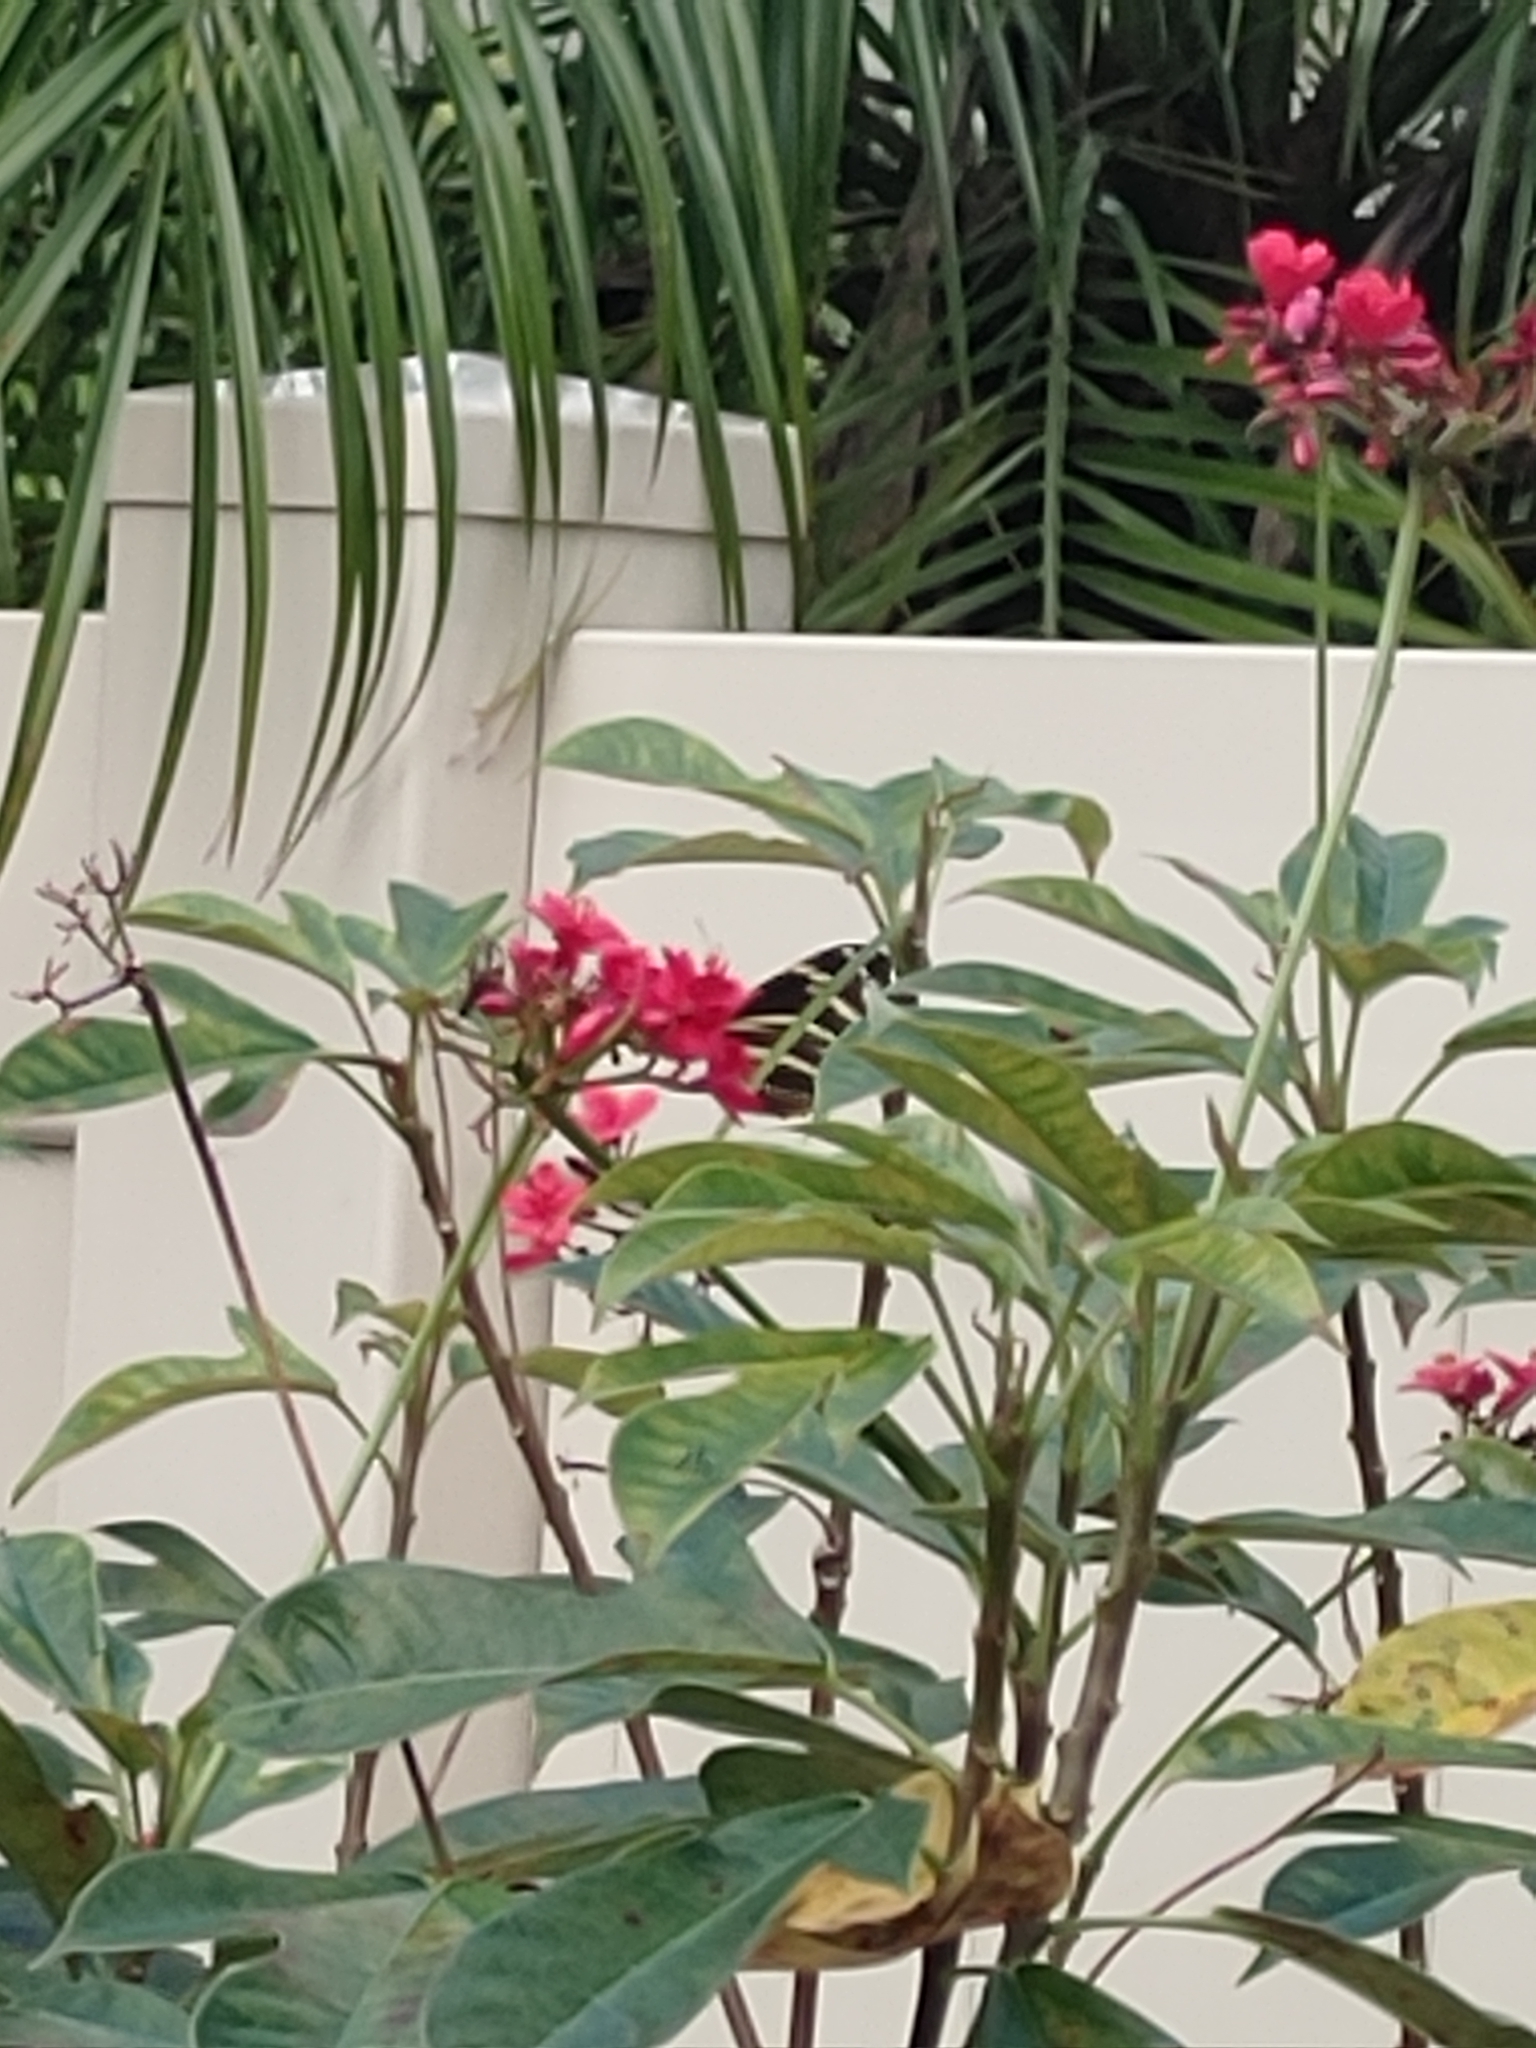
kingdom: Animalia
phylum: Arthropoda
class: Insecta
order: Lepidoptera
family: Nymphalidae
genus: Heliconius
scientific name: Heliconius charithonia
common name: Zebra long wing
